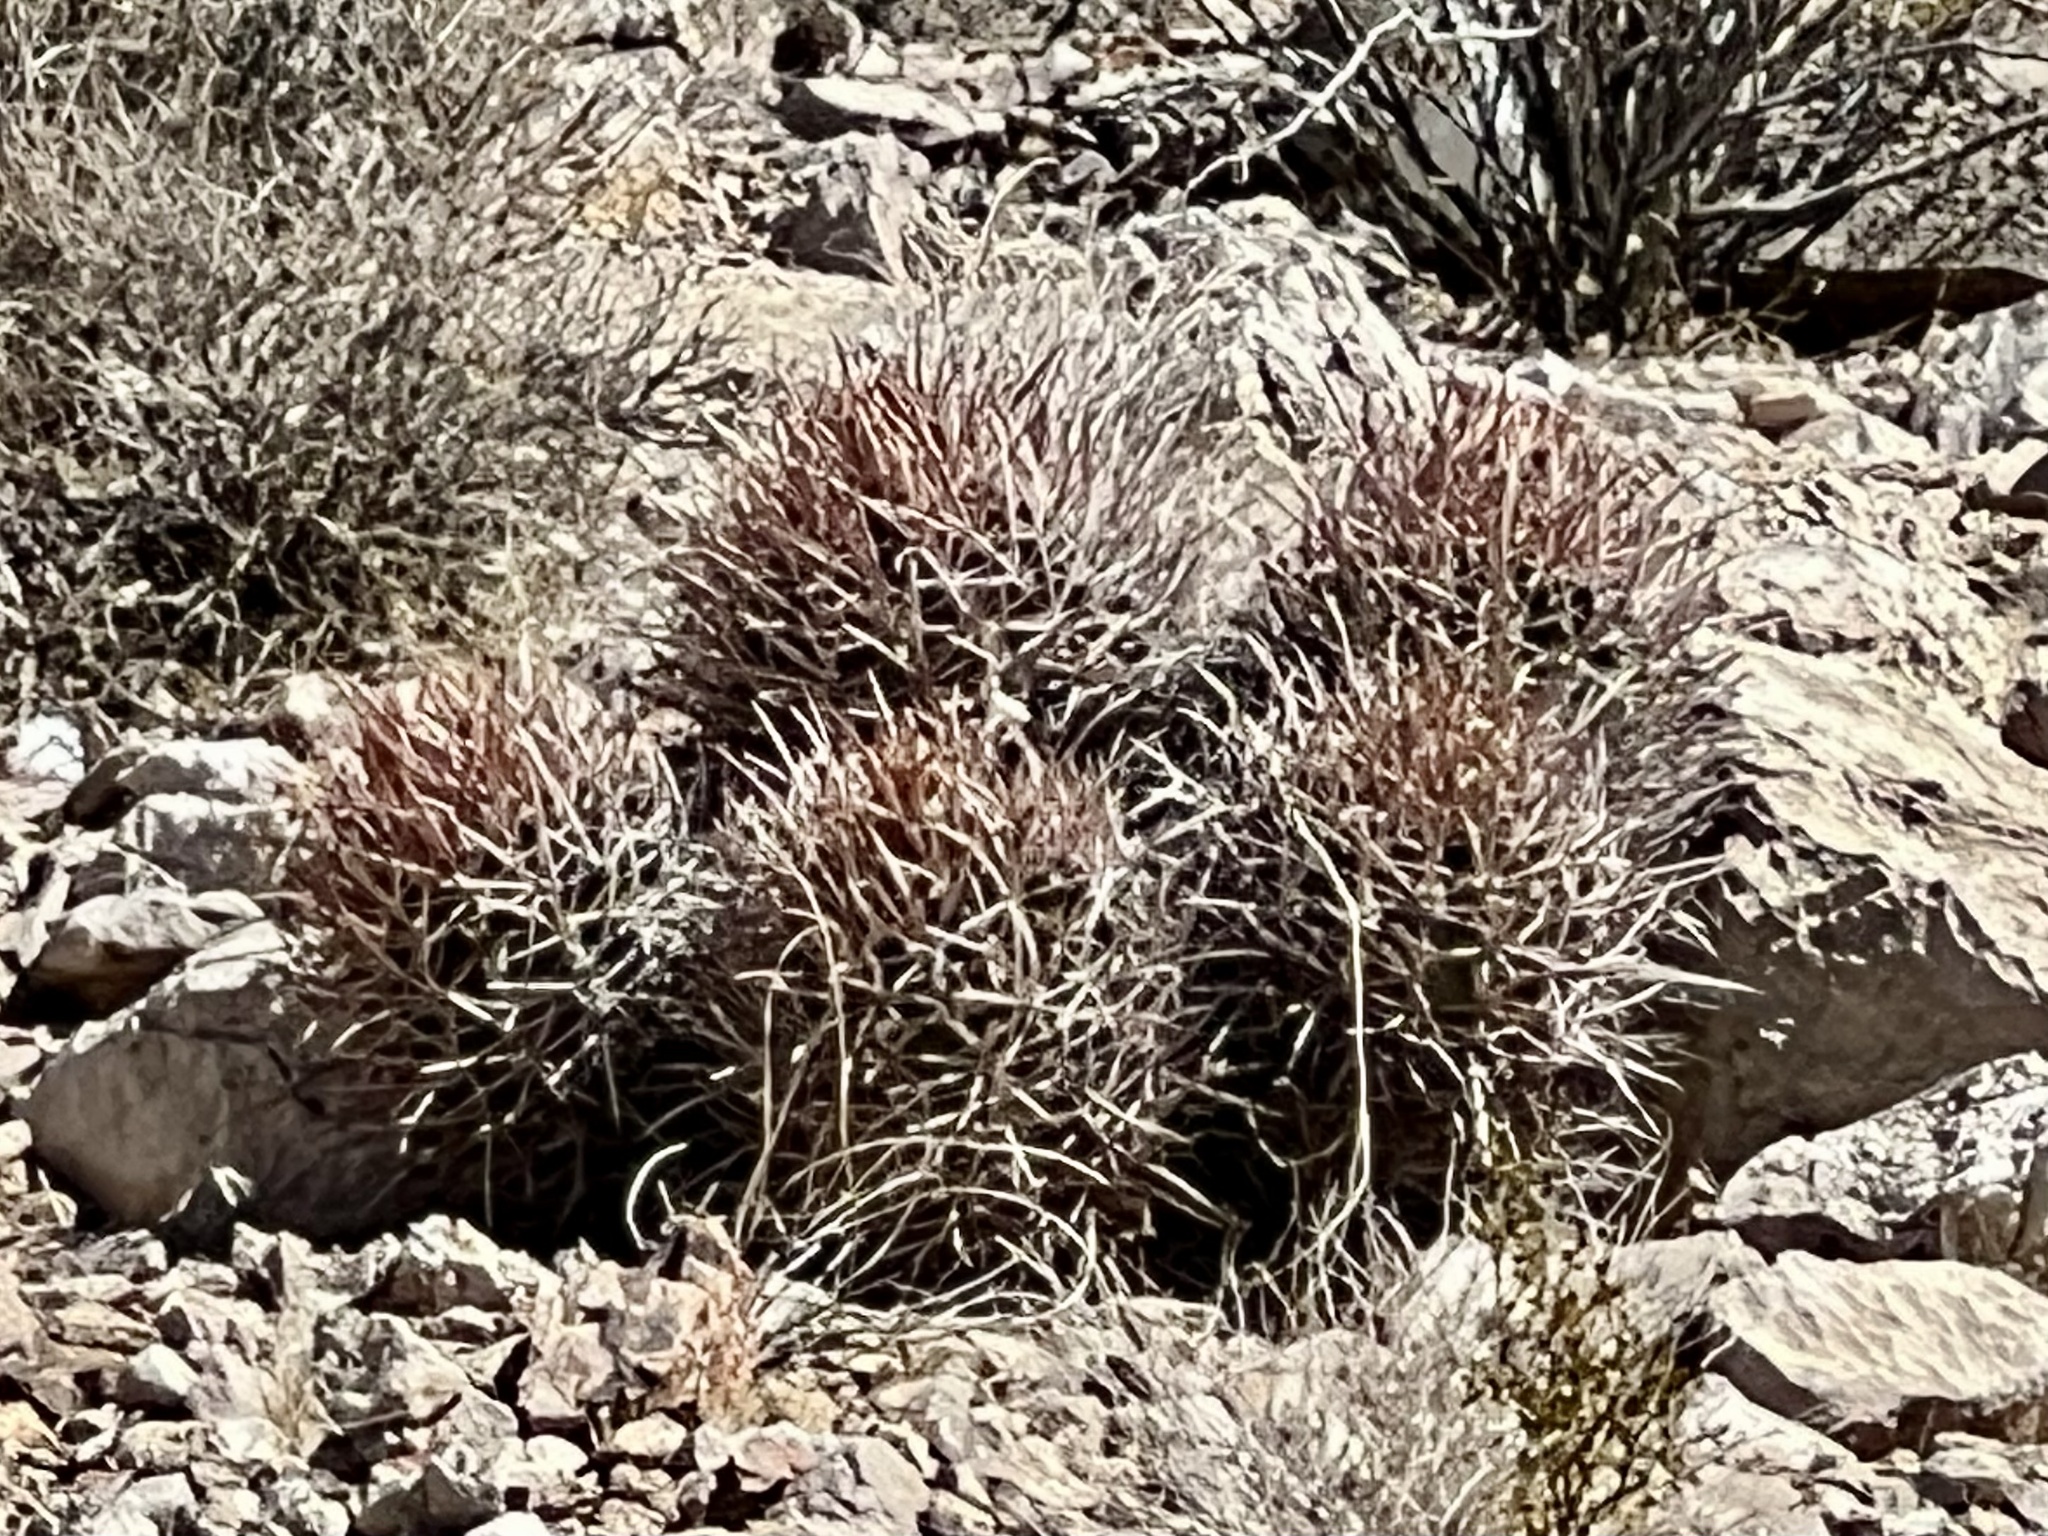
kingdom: Plantae
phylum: Tracheophyta
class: Magnoliopsida
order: Caryophyllales
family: Cactaceae
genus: Echinocactus
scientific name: Echinocactus polycephalus
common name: Cottontop cactus
